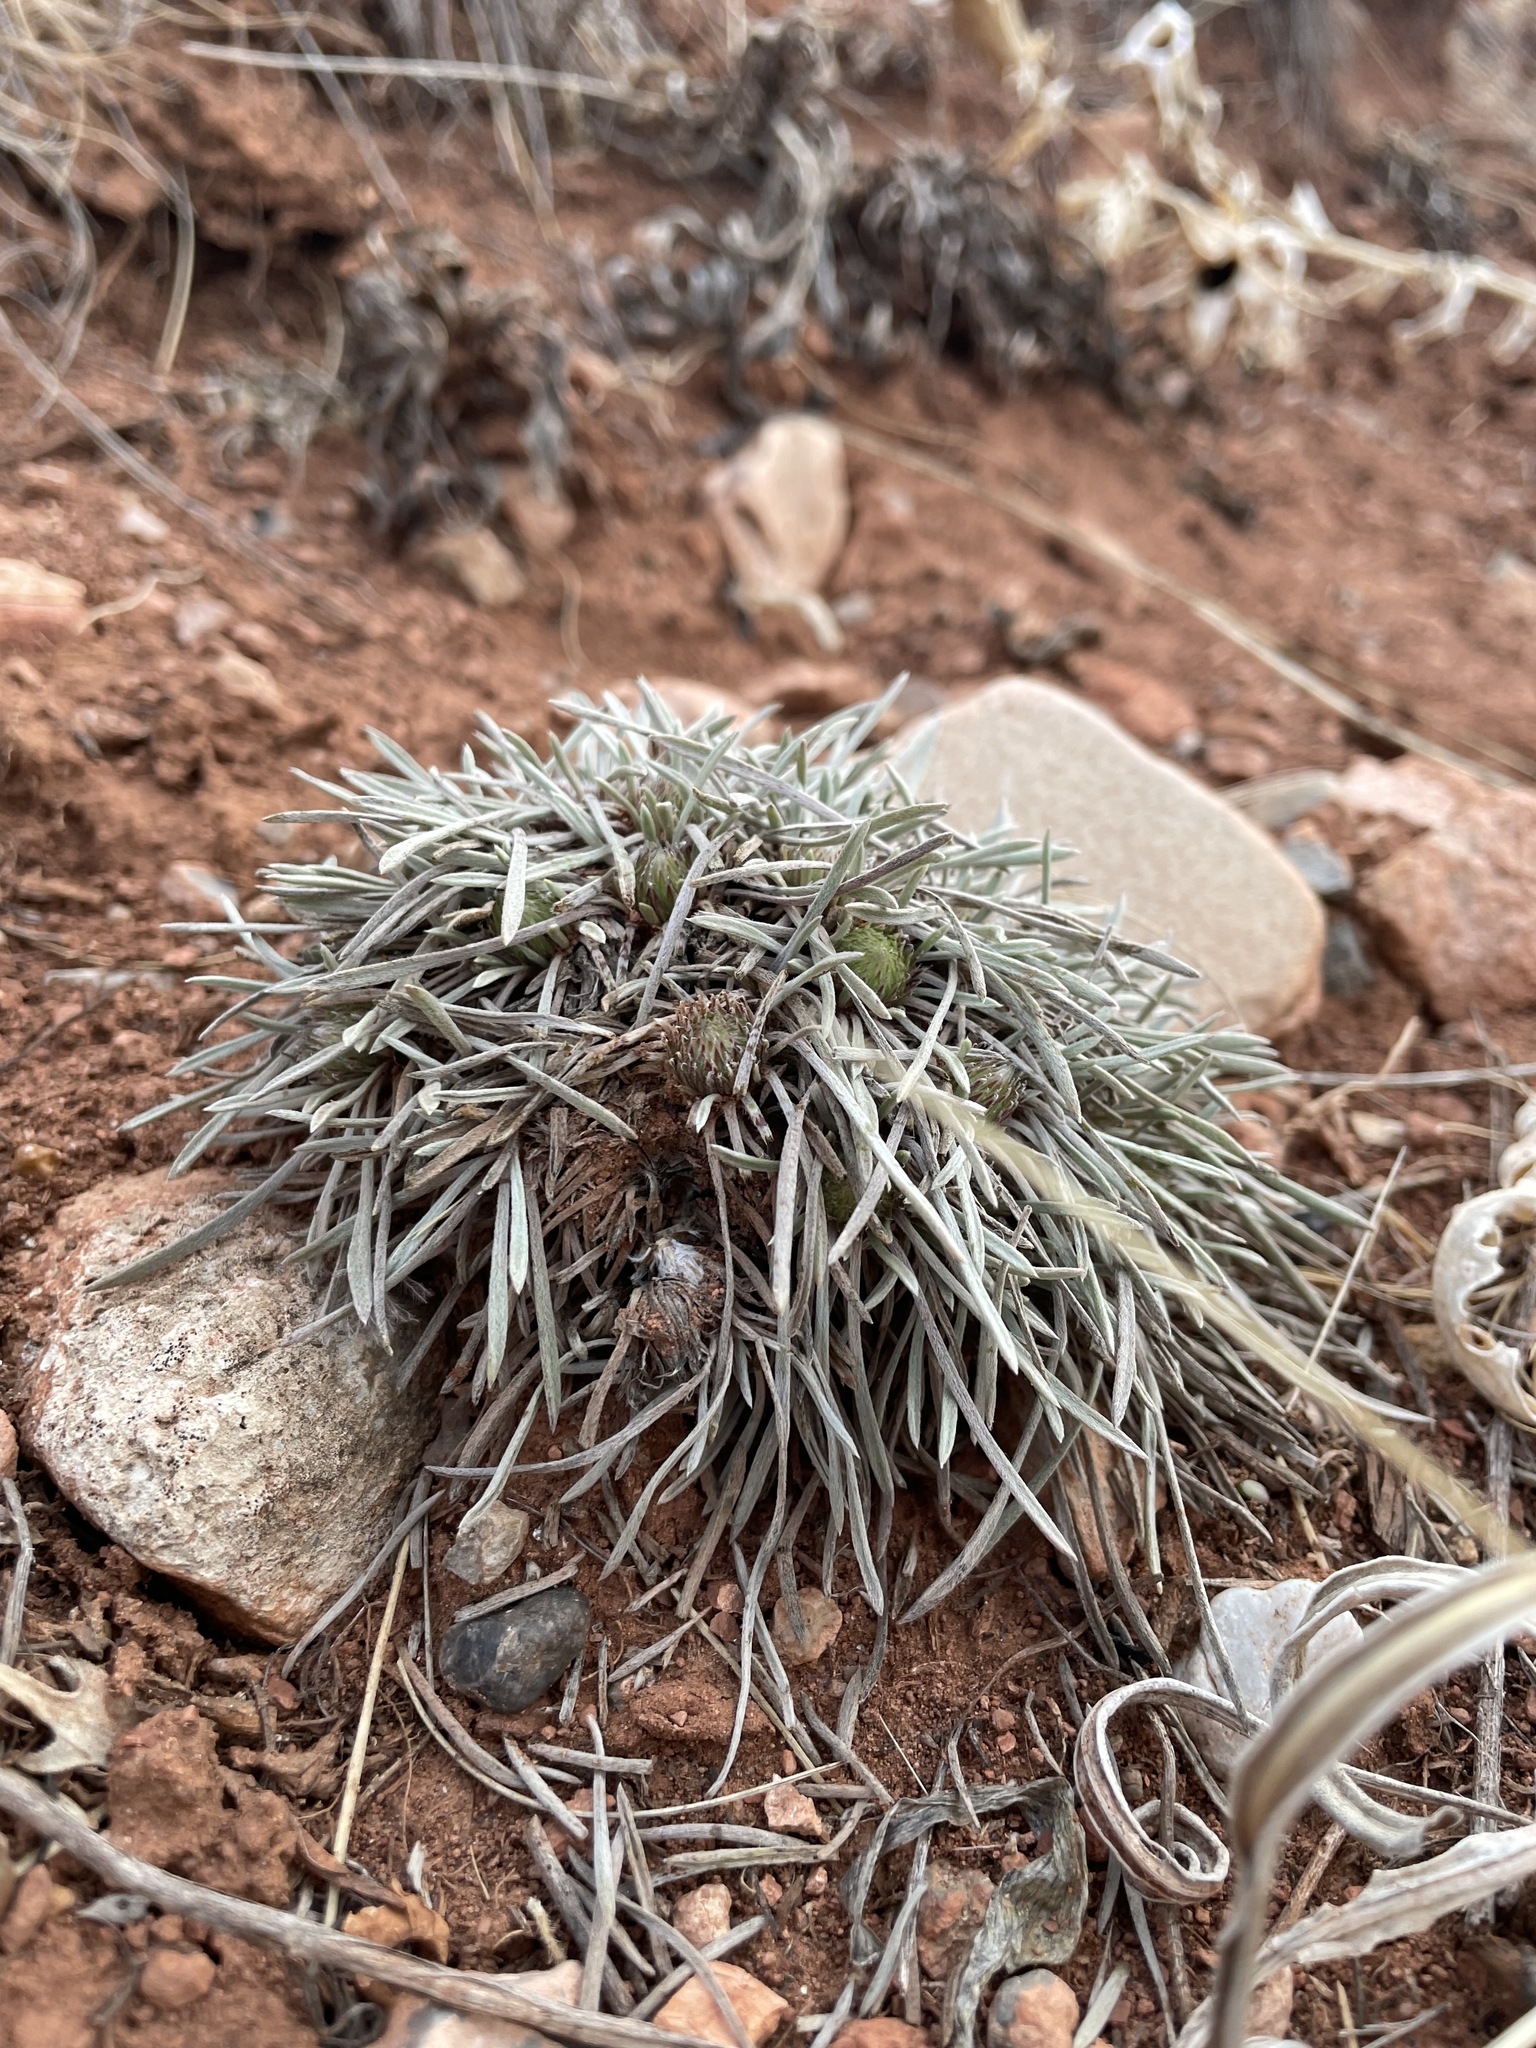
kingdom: Plantae
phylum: Tracheophyta
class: Magnoliopsida
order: Asterales
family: Asteraceae
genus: Townsendia
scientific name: Townsendia hookeri
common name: Hooker's townsend daisy
